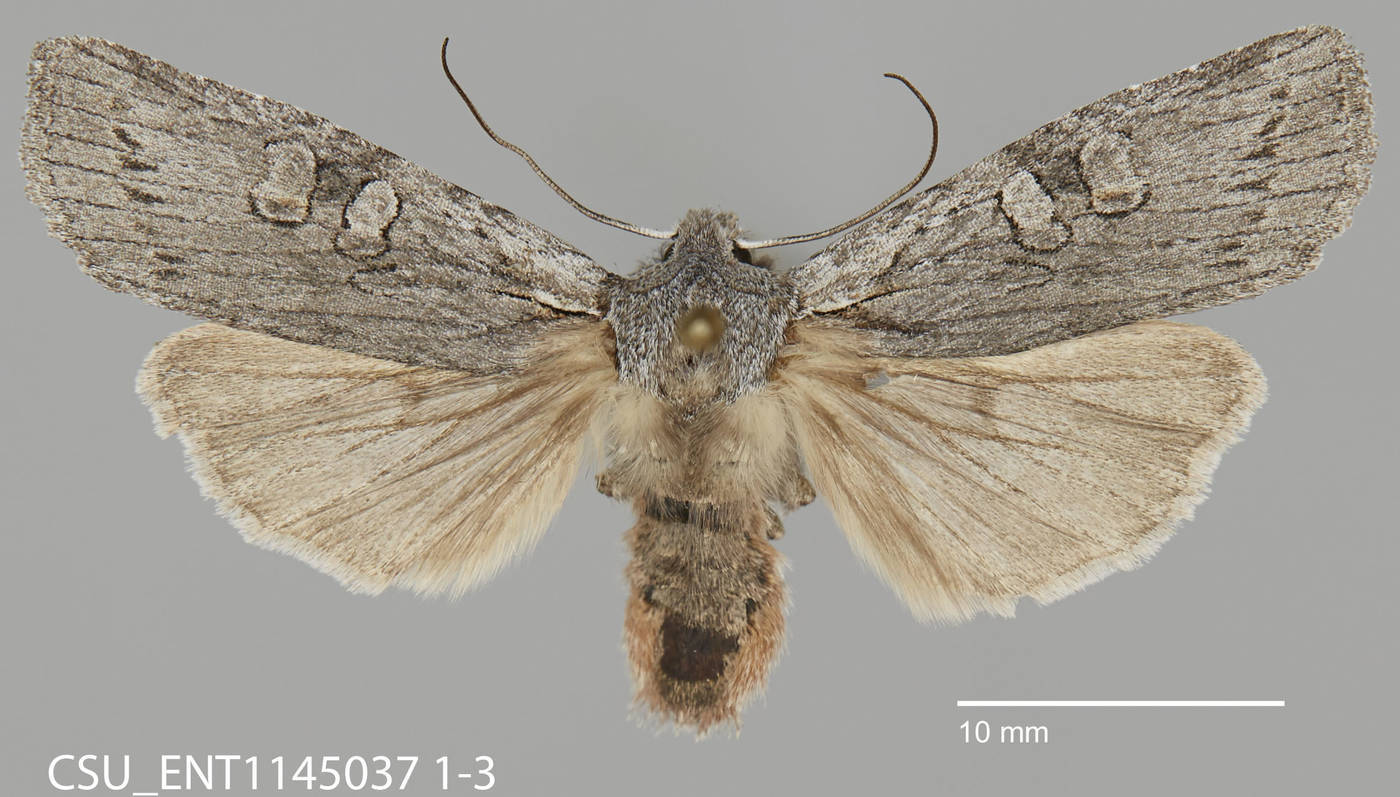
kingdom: Animalia
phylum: Arthropoda
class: Insecta
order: Lepidoptera
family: Noctuidae
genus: Lithophane
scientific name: Lithophane georgii
